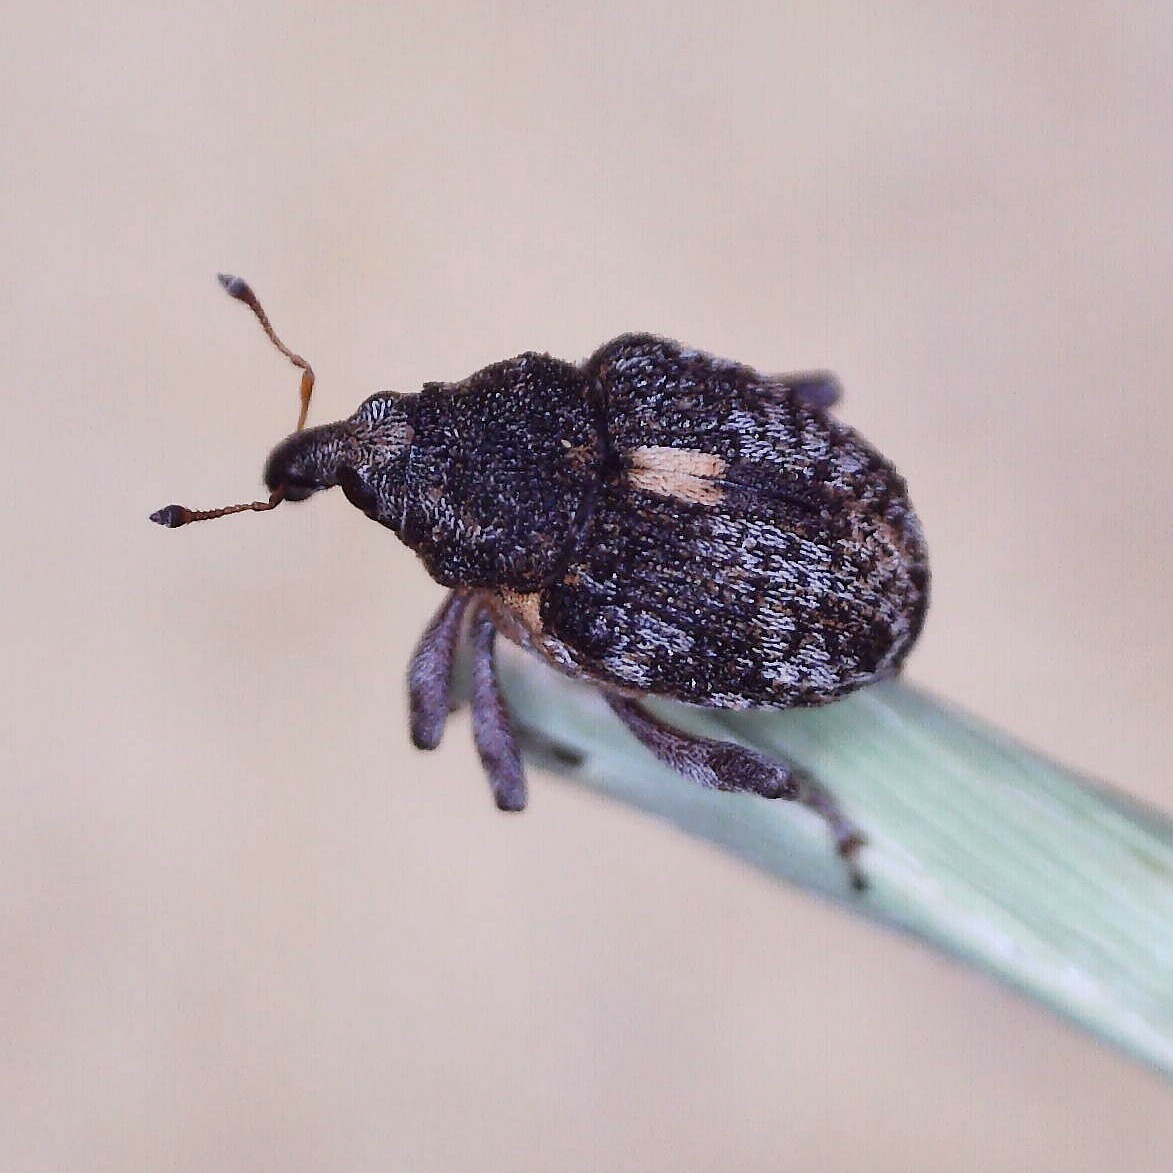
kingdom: Animalia
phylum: Arthropoda
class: Insecta
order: Coleoptera
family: Curculionidae
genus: Rhinoncus
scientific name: Rhinoncus pericarpius
